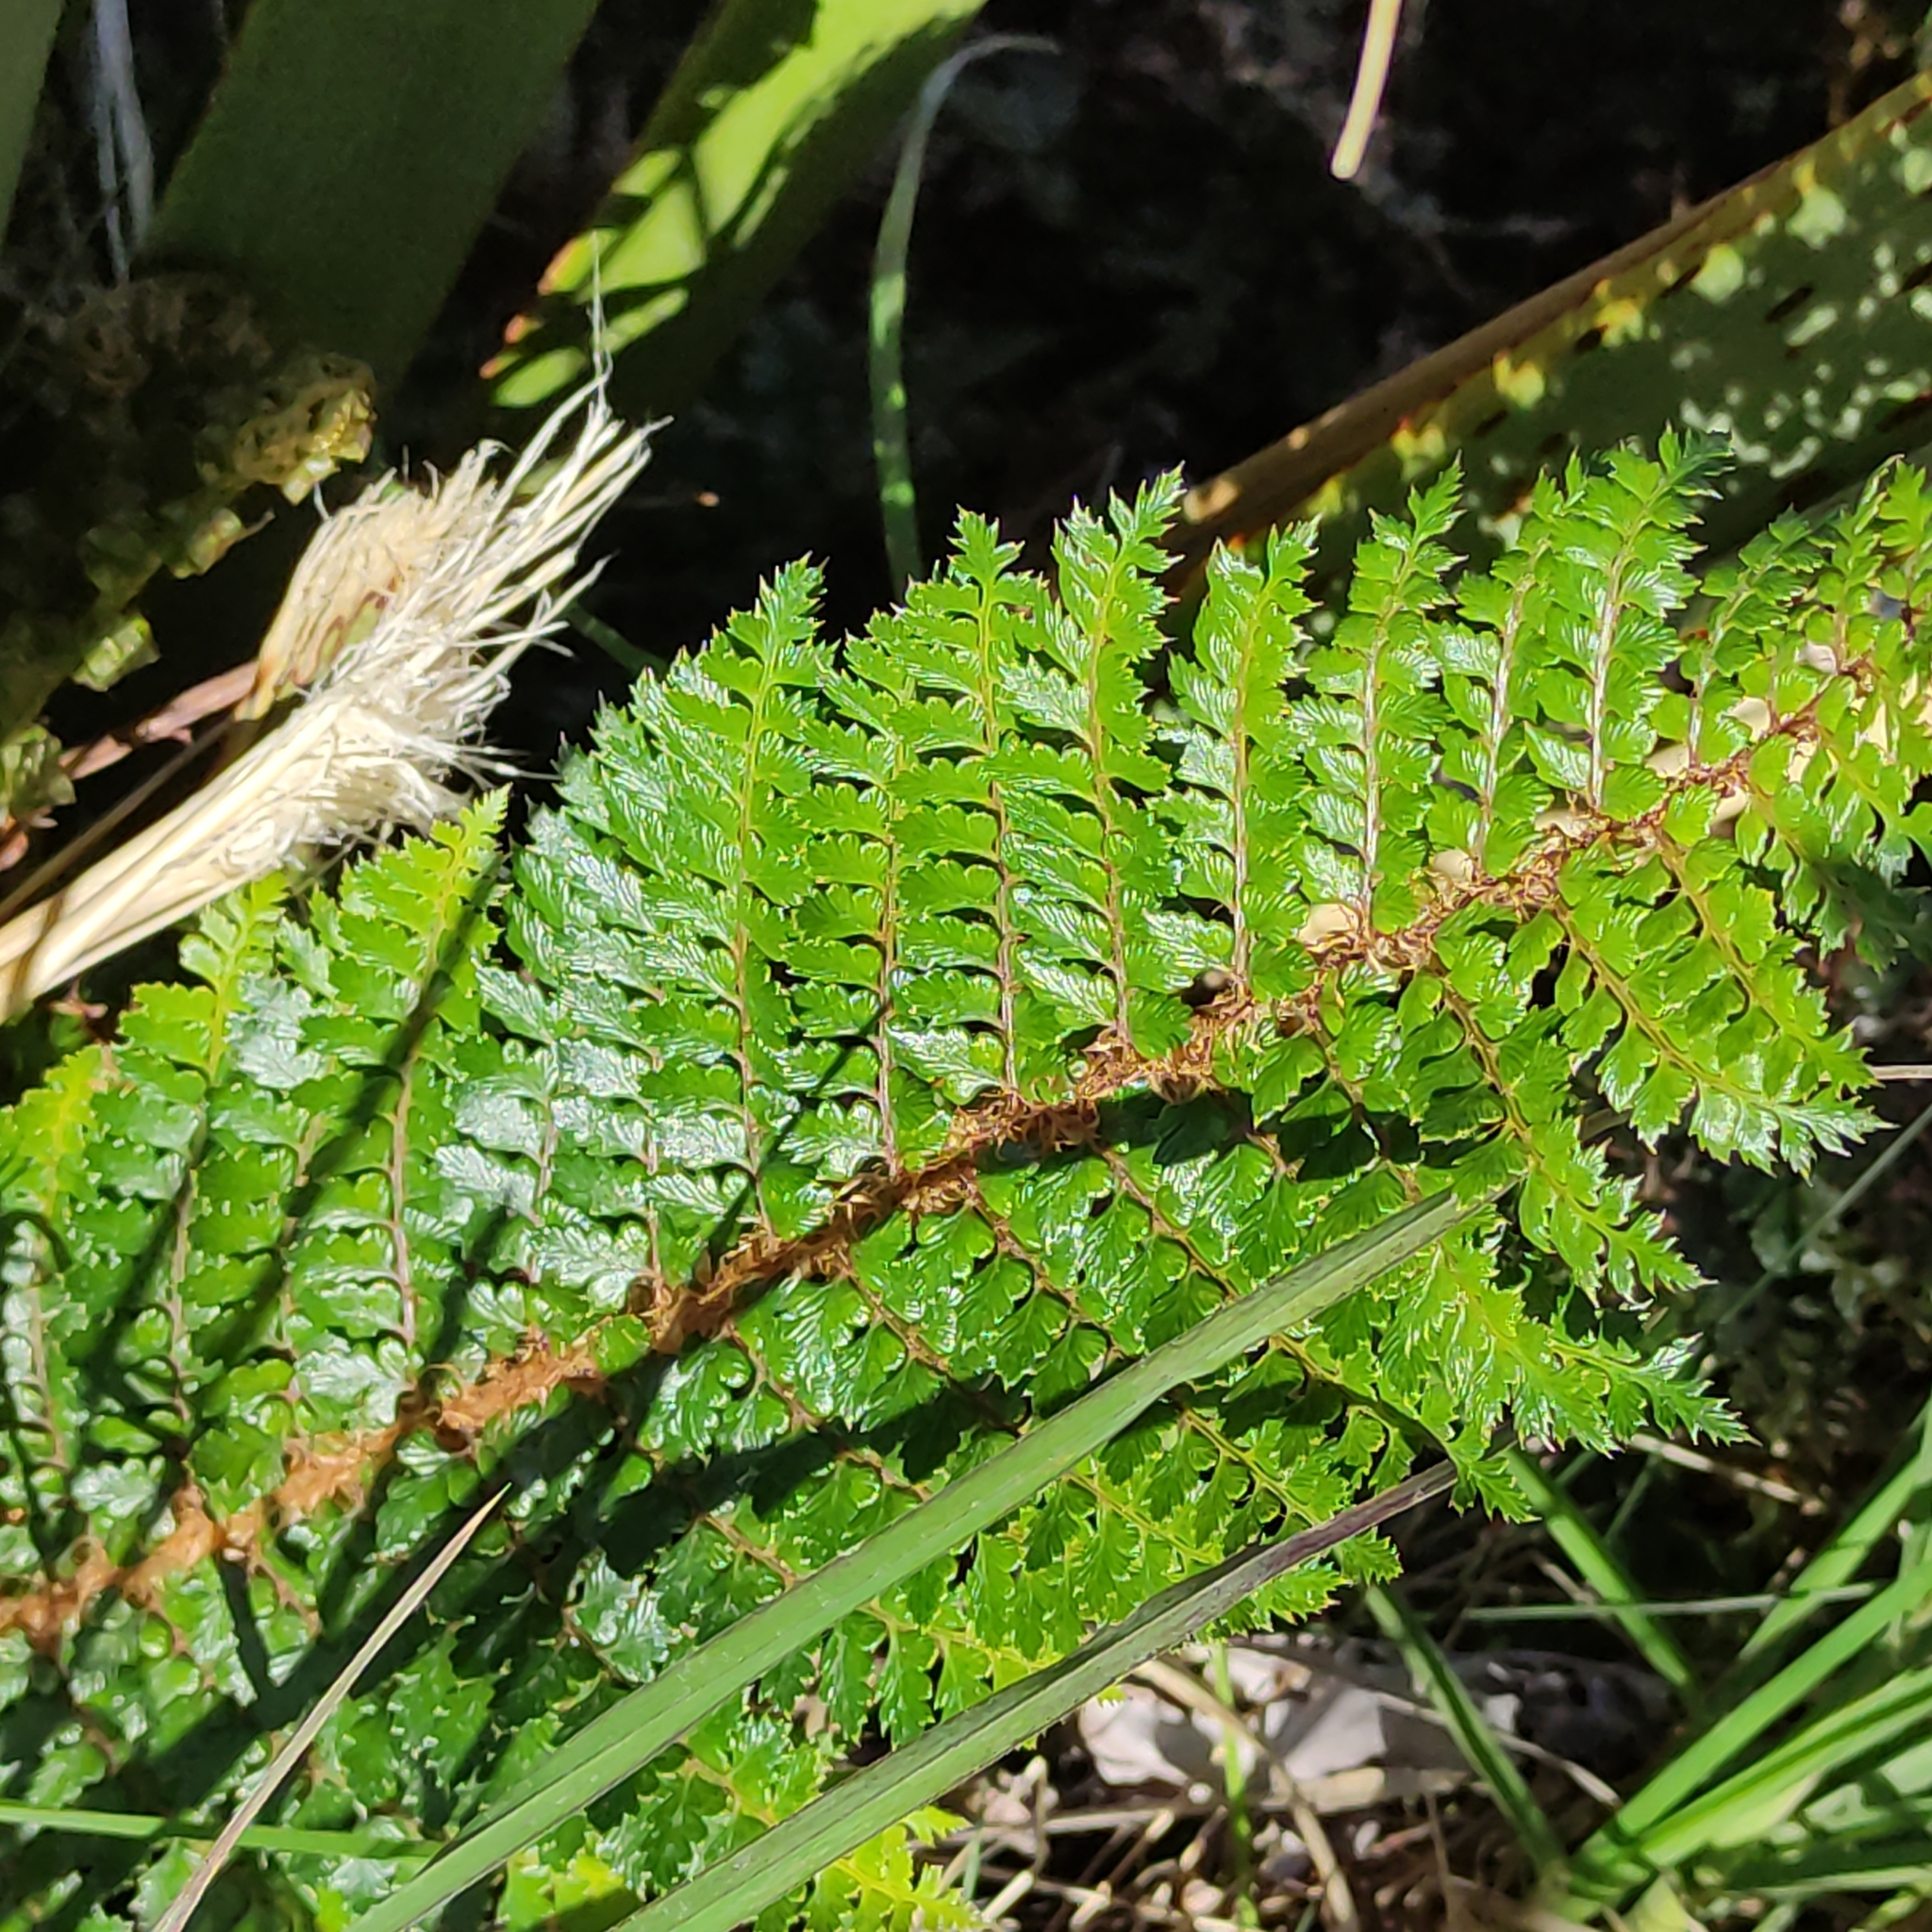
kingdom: Plantae
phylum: Tracheophyta
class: Polypodiopsida
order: Polypodiales
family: Dryopteridaceae
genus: Polystichum
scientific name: Polystichum vestitum
